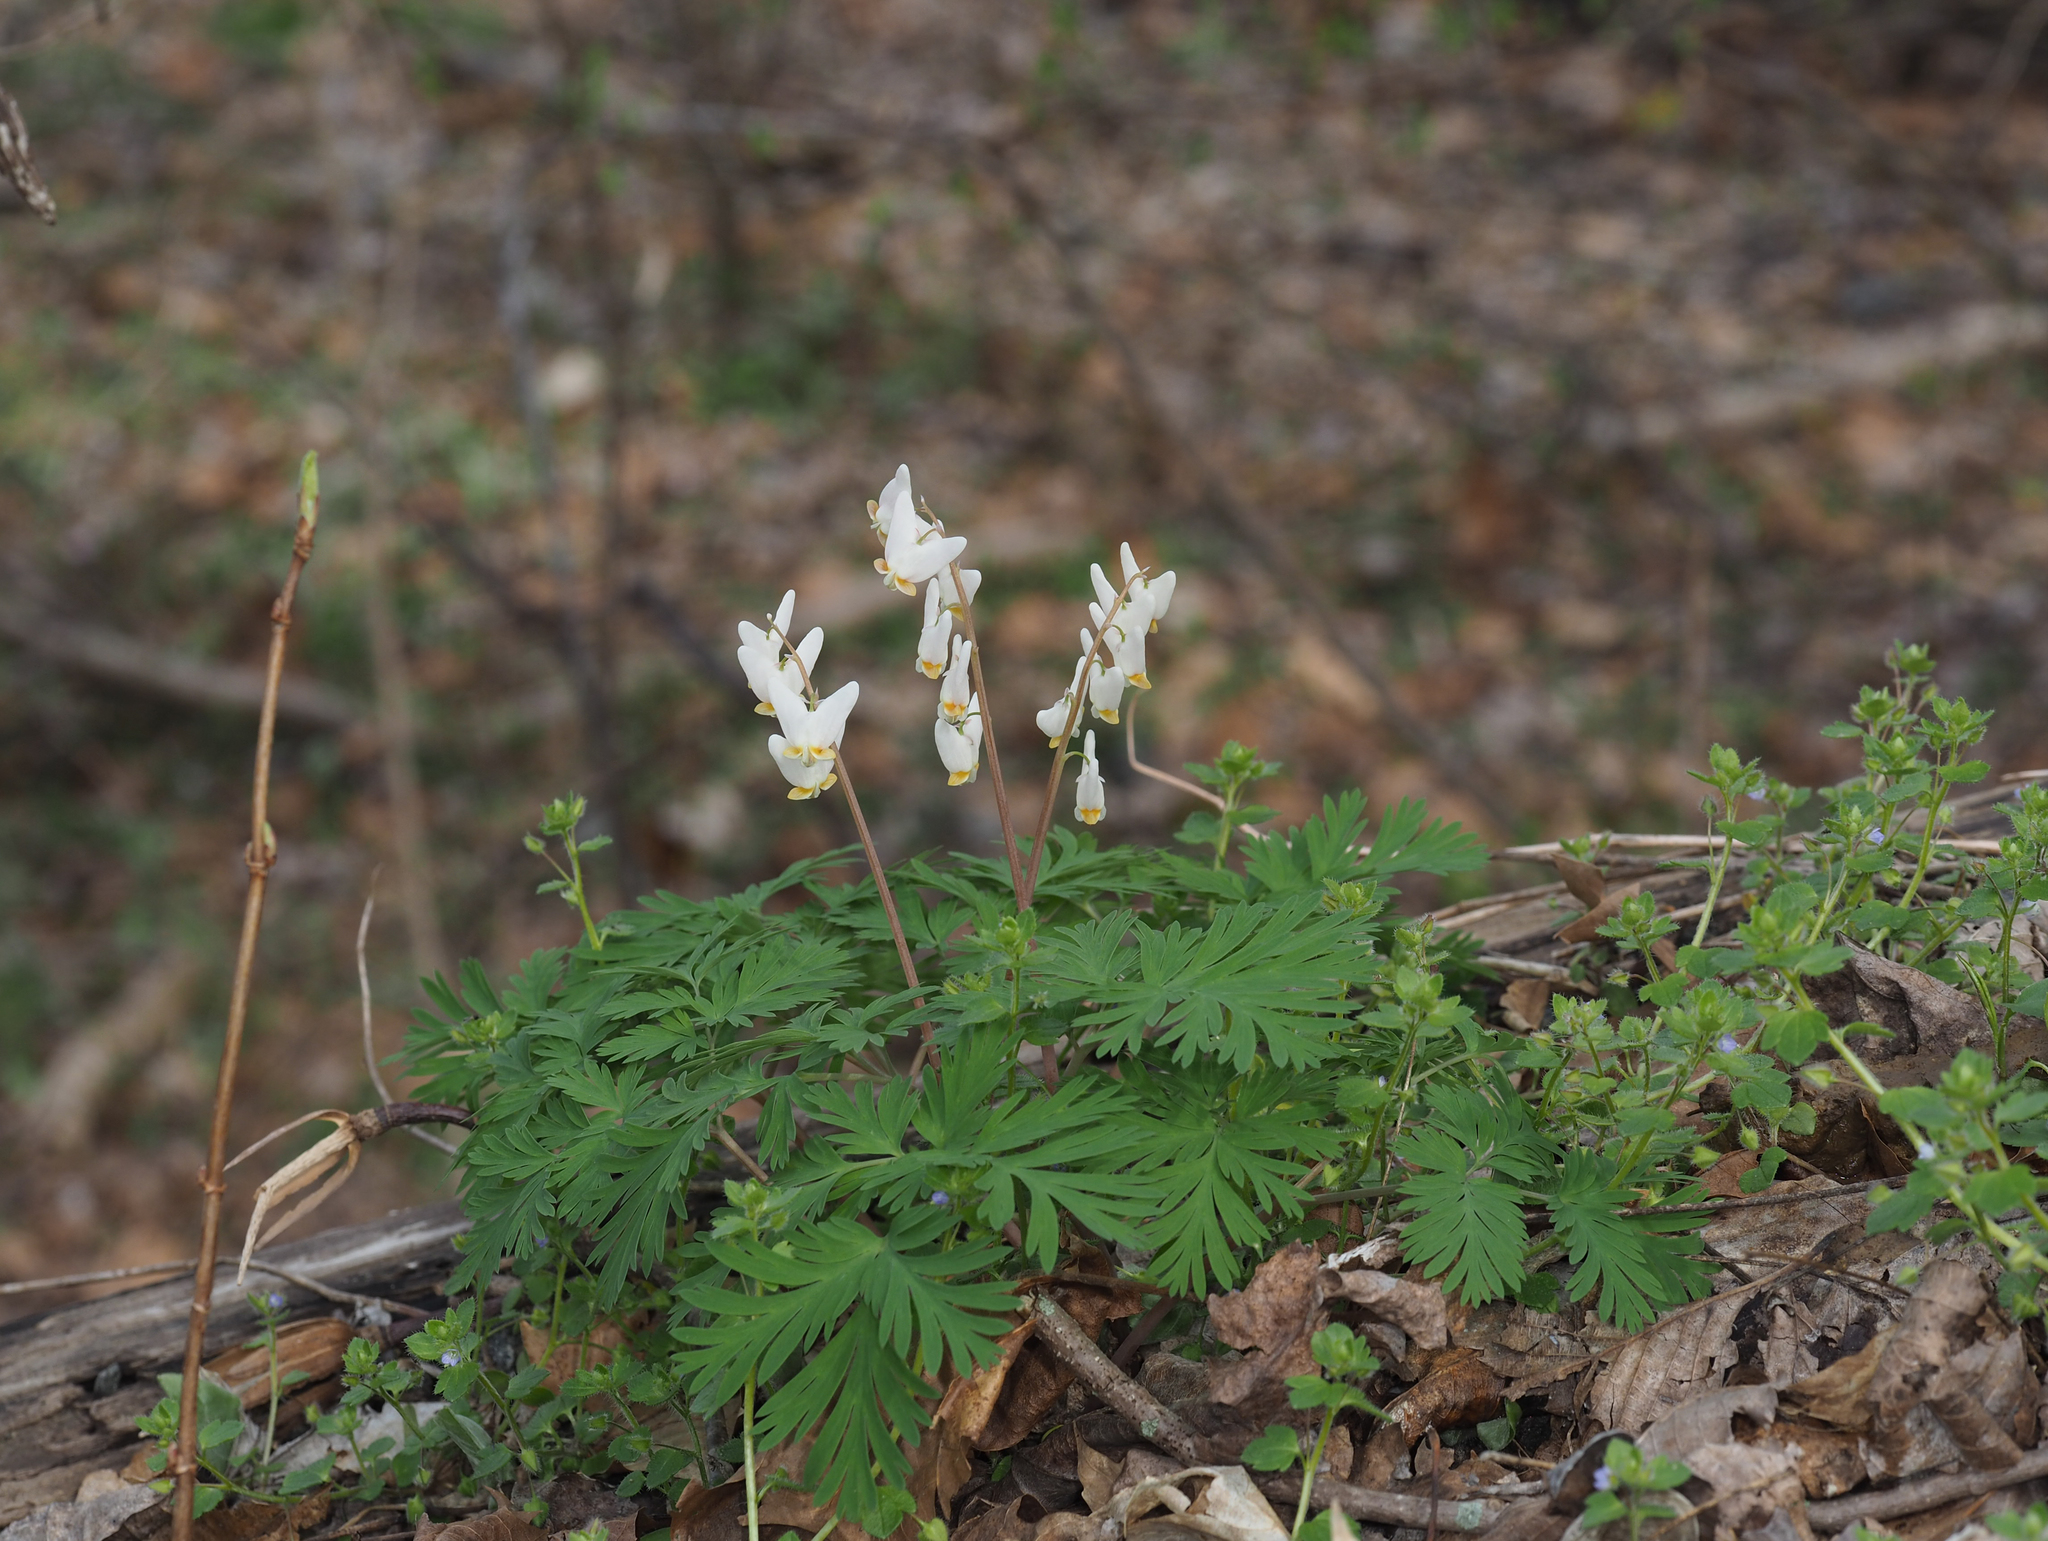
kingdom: Plantae
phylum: Tracheophyta
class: Magnoliopsida
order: Ranunculales
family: Papaveraceae
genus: Dicentra
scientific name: Dicentra cucullaria
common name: Dutchman's breeches
